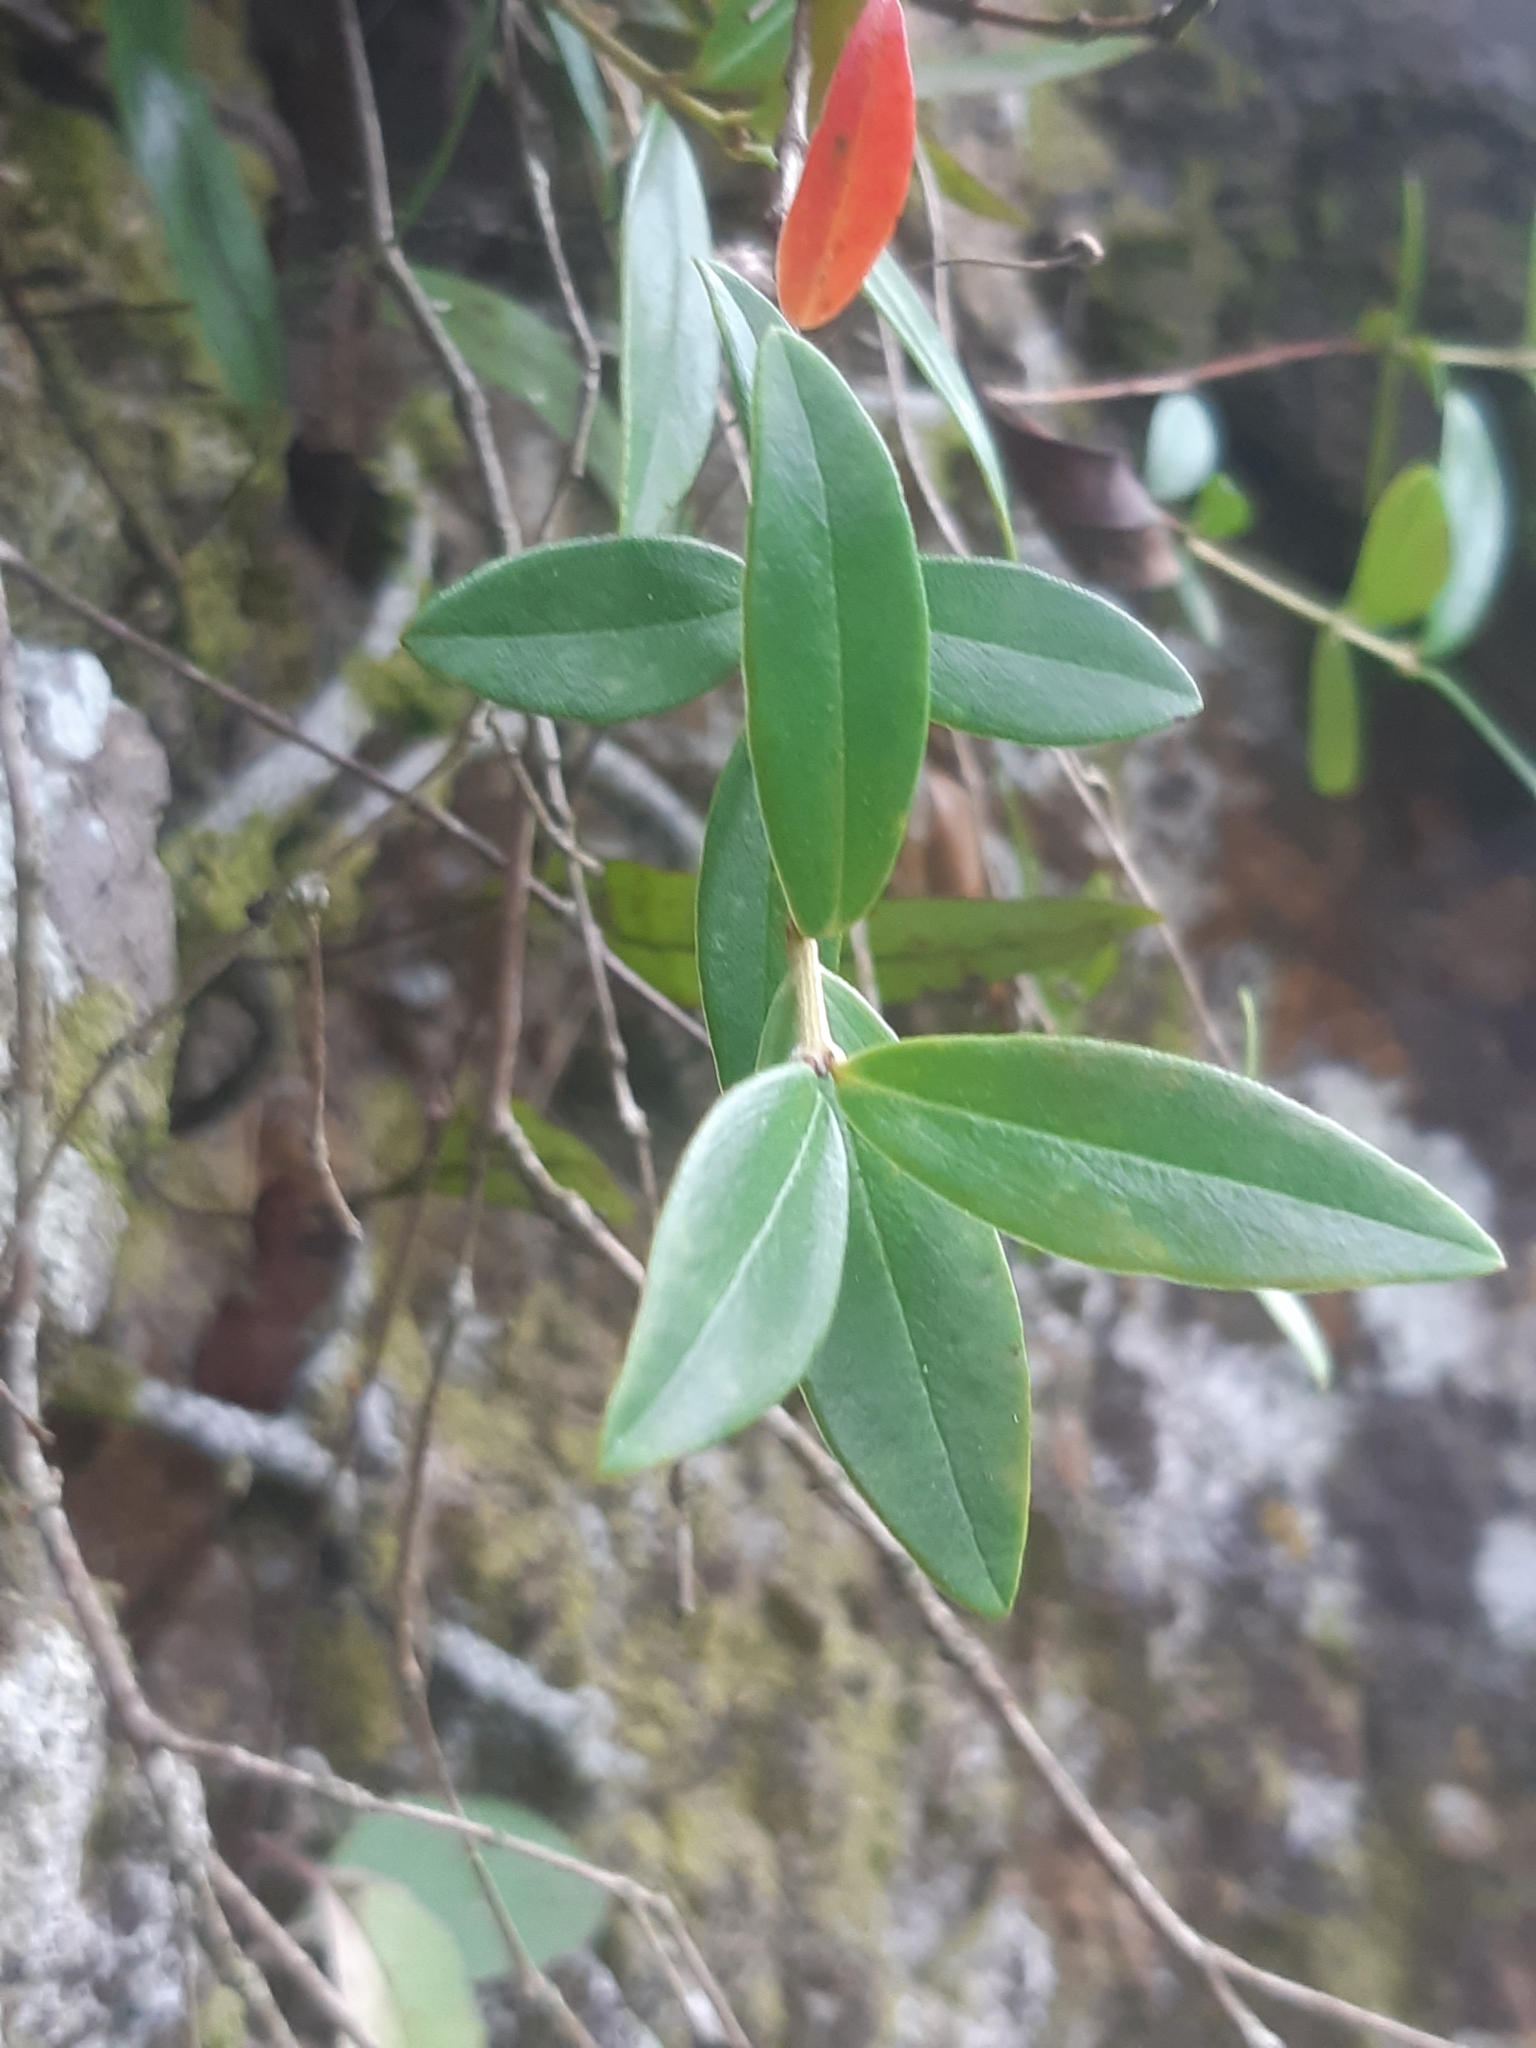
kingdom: Plantae
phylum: Tracheophyta
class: Magnoliopsida
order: Myrtales
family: Myrtaceae
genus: Metrosideros
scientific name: Metrosideros umbellata
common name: Southern rata
